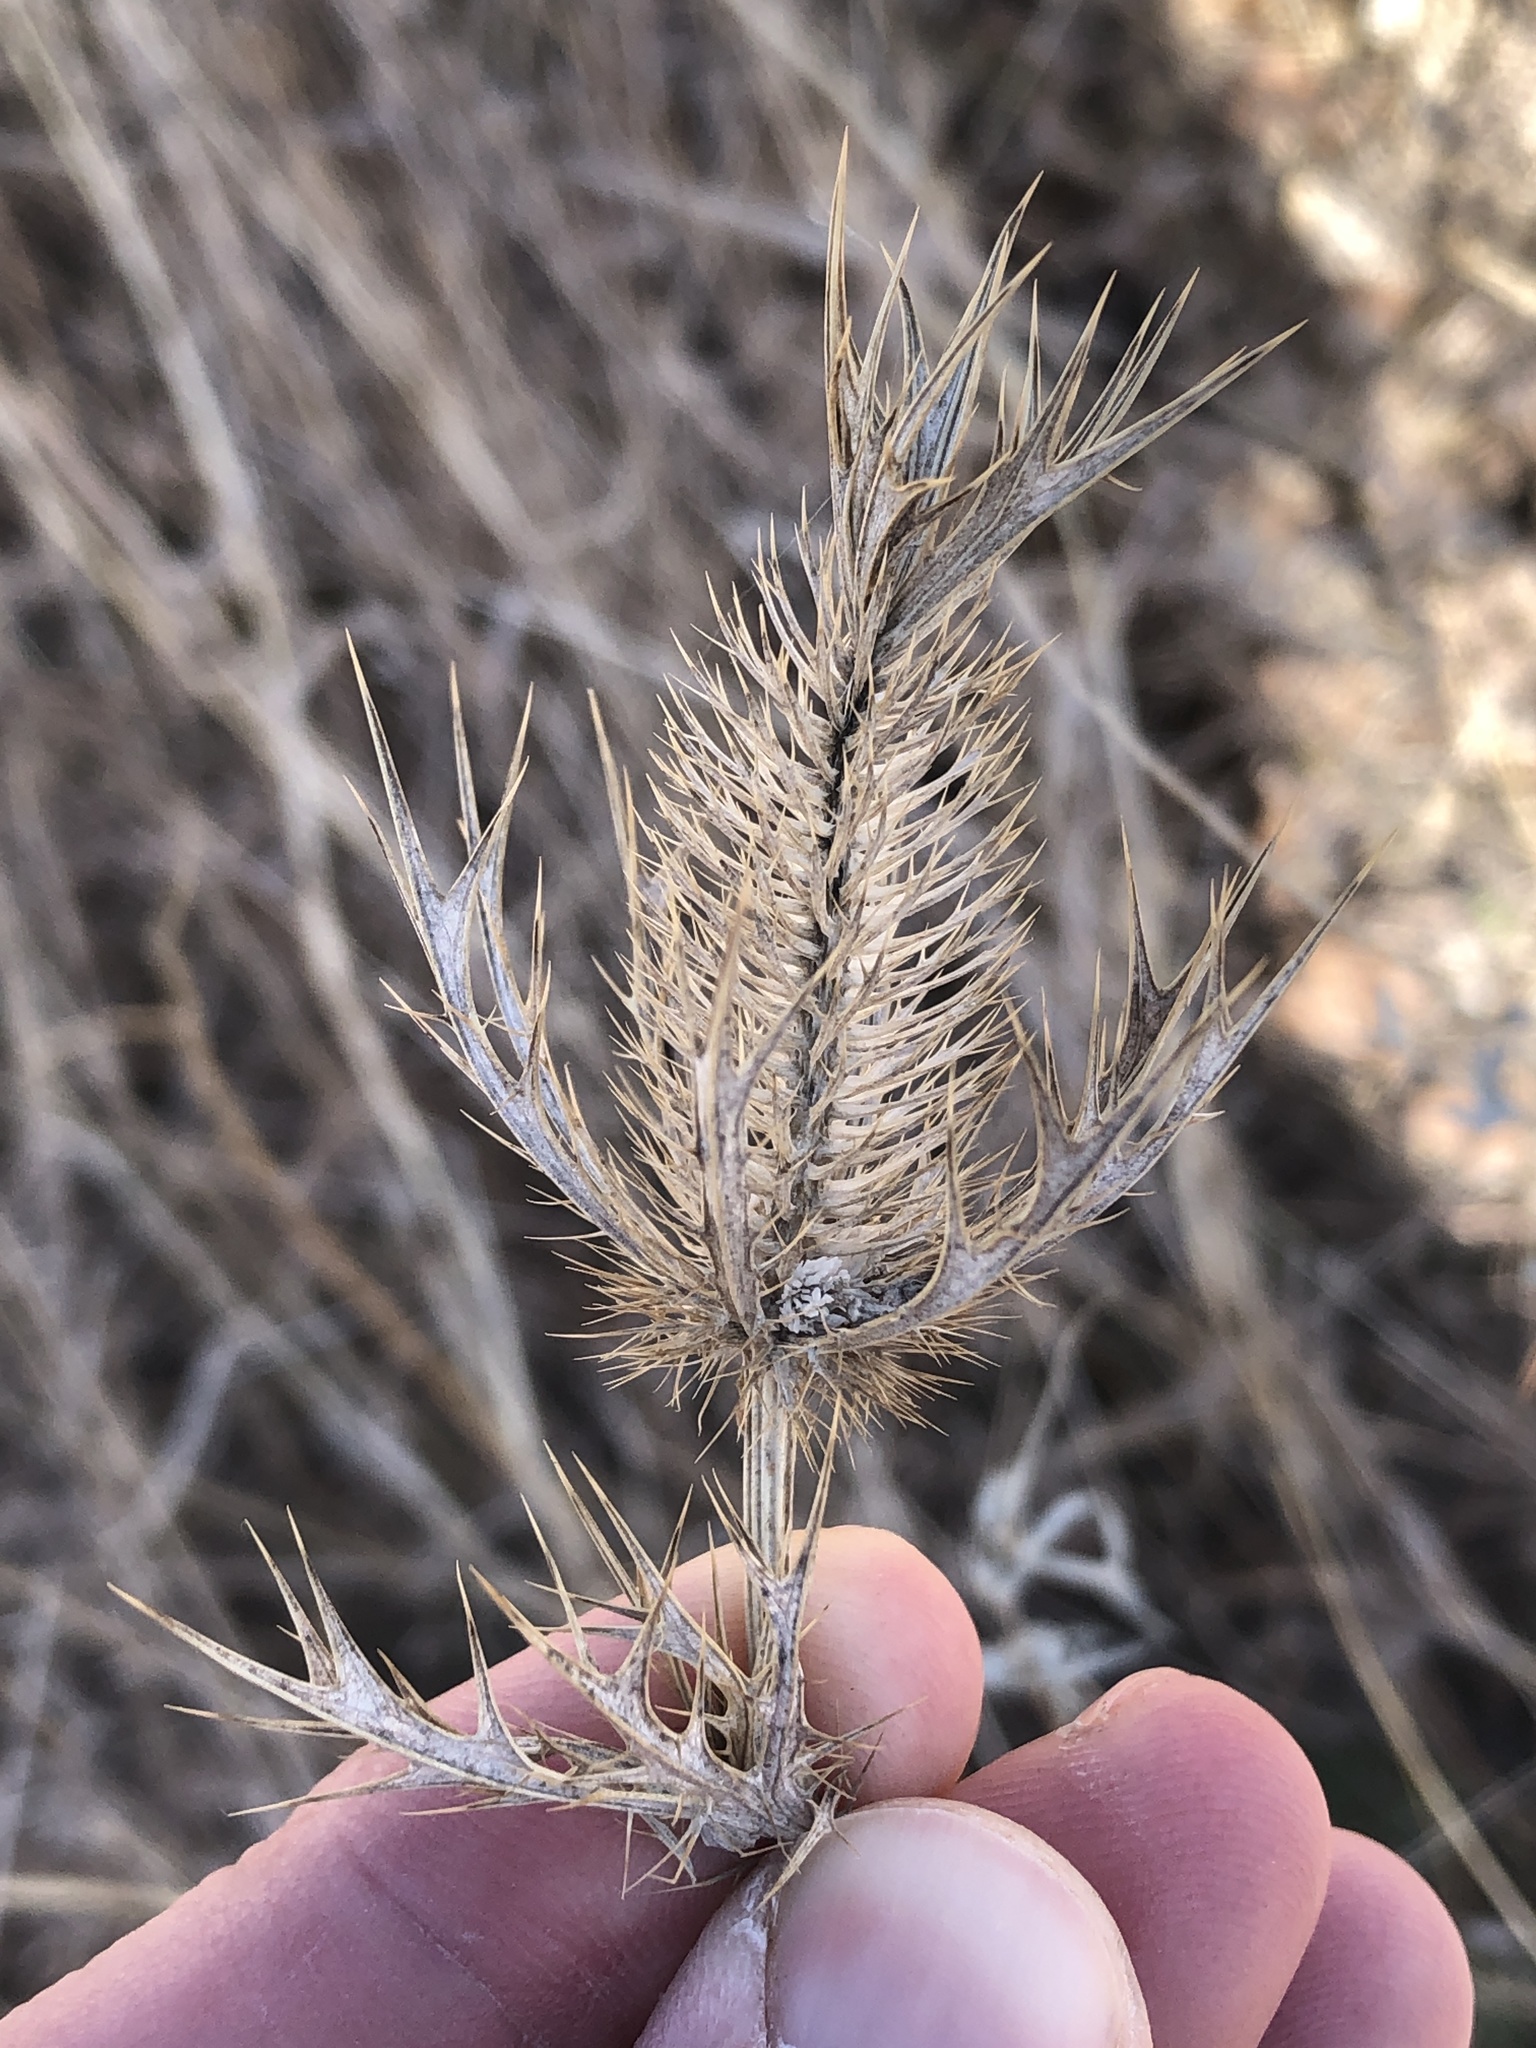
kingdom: Plantae
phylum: Tracheophyta
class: Magnoliopsida
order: Apiales
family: Apiaceae
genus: Eryngium
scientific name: Eryngium leavenworthii
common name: Leavenworth's eryngo
